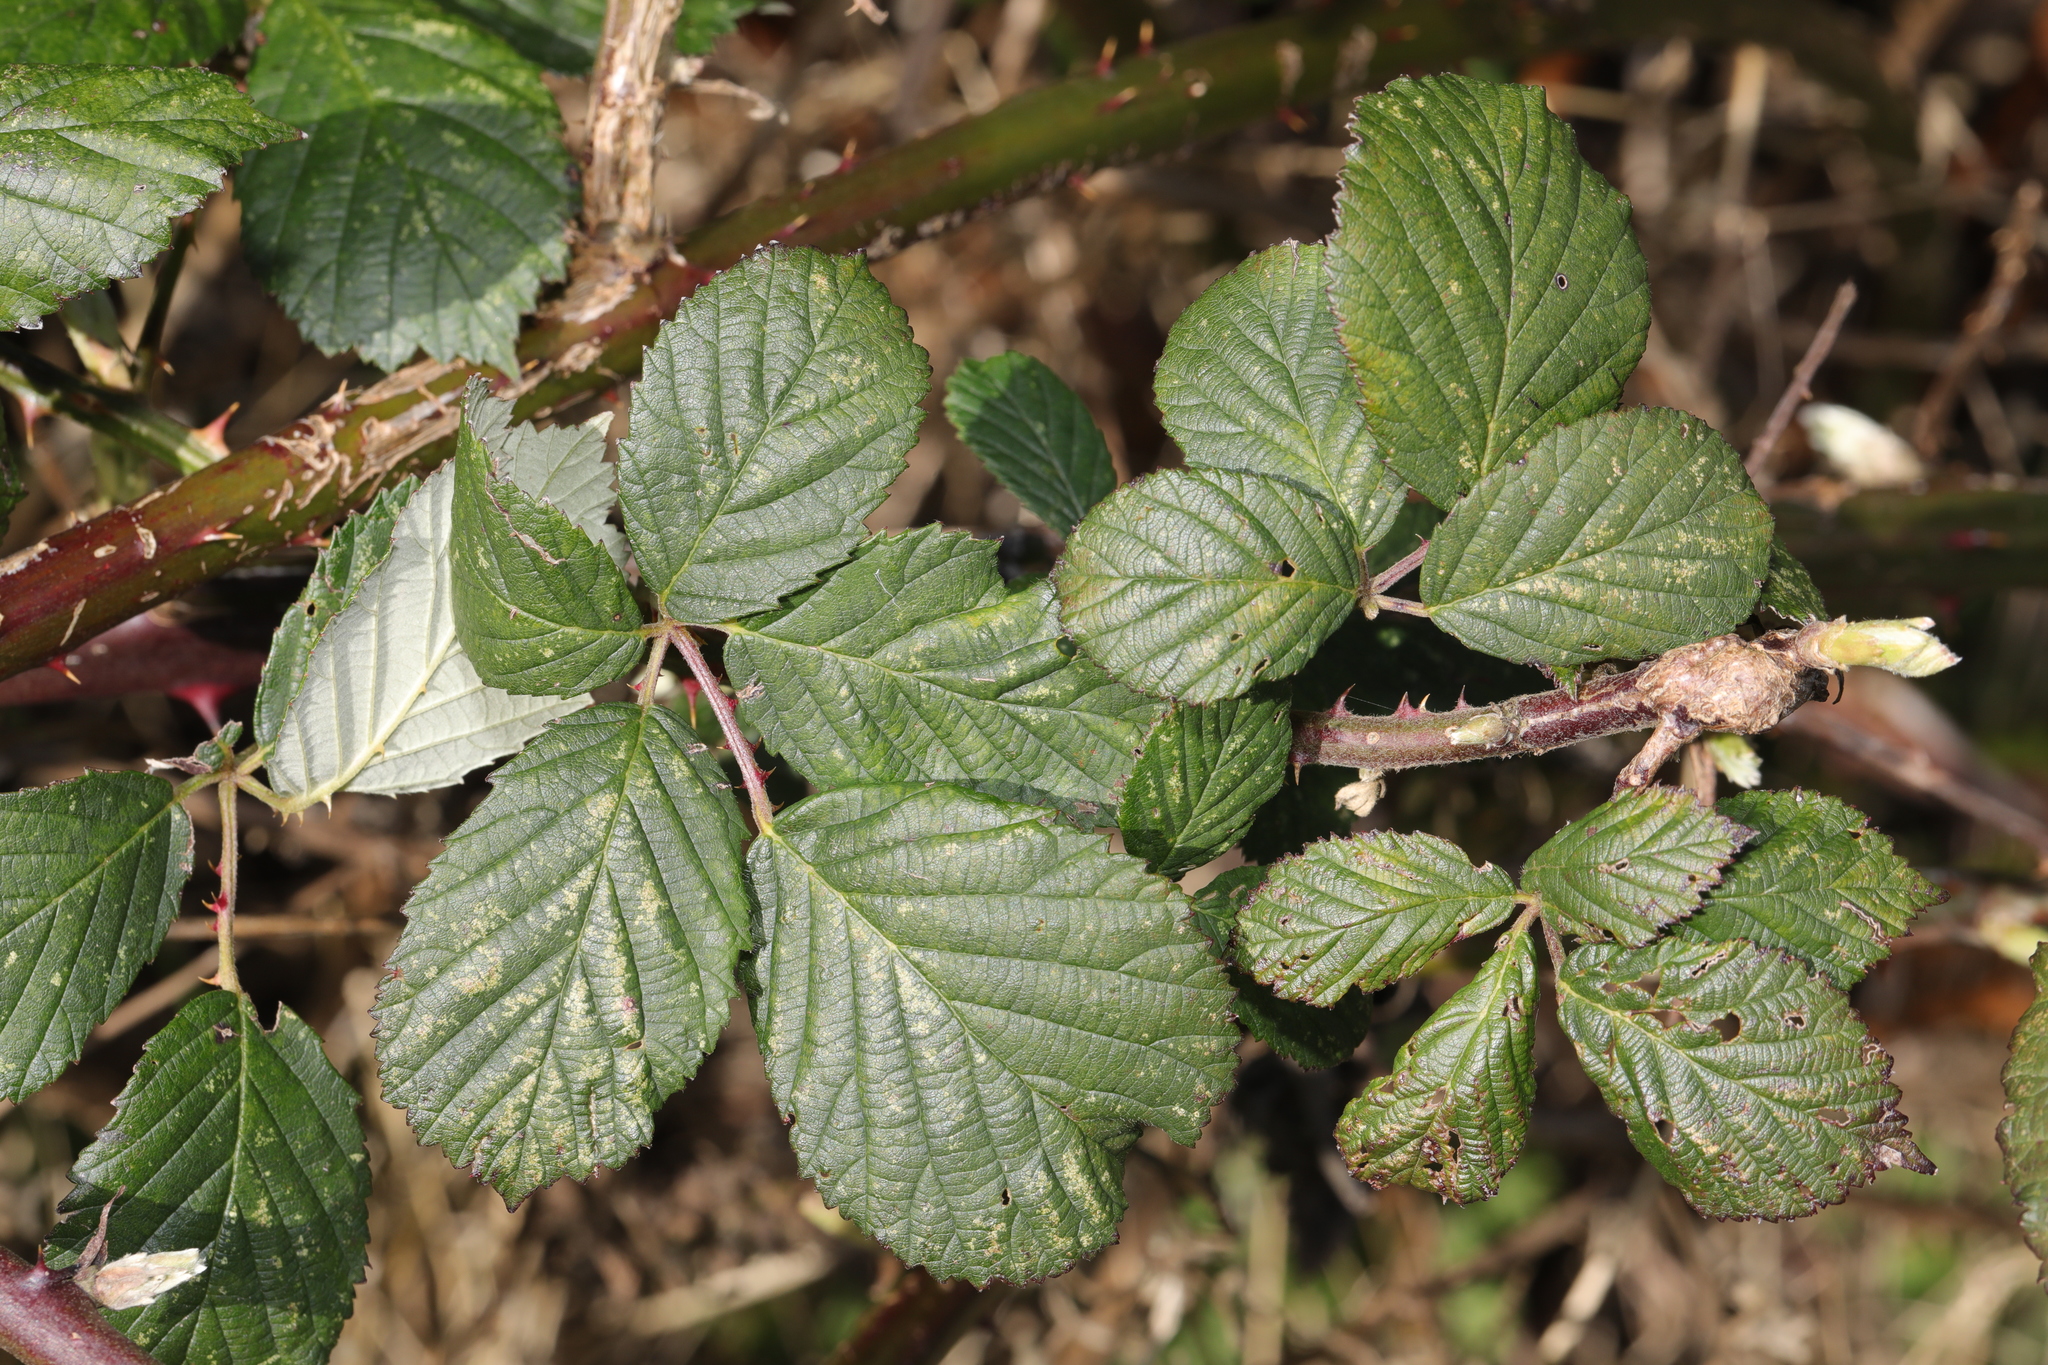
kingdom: Plantae
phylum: Tracheophyta
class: Magnoliopsida
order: Rosales
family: Rosaceae
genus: Rubus
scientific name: Rubus armeniacus
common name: Himalayan blackberry
